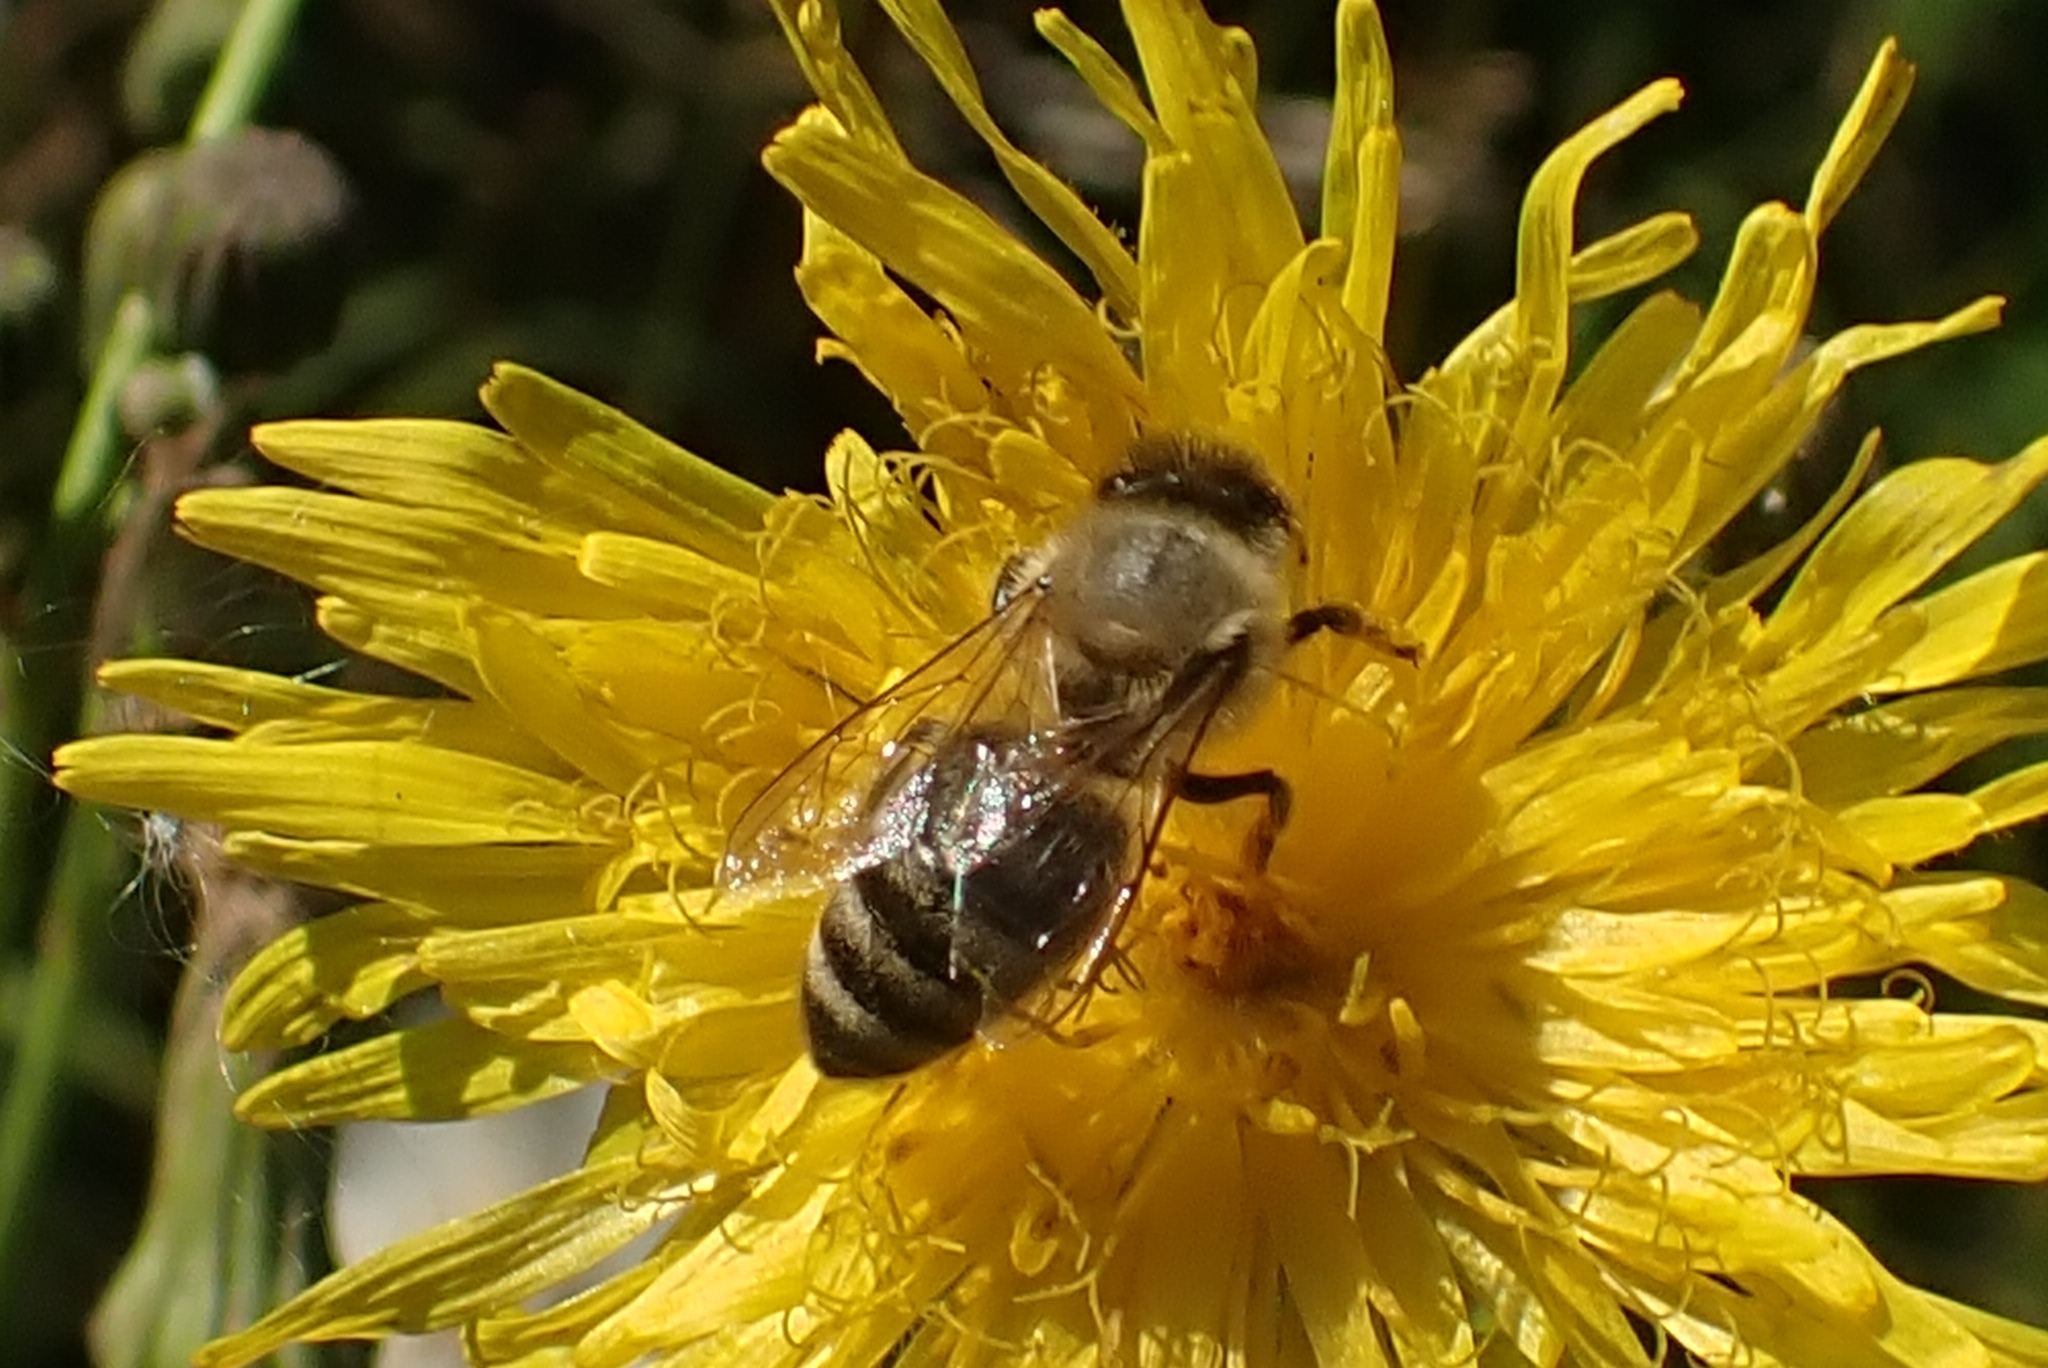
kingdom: Animalia
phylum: Arthropoda
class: Insecta
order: Hymenoptera
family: Apidae
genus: Apis
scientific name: Apis mellifera
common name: Honey bee
